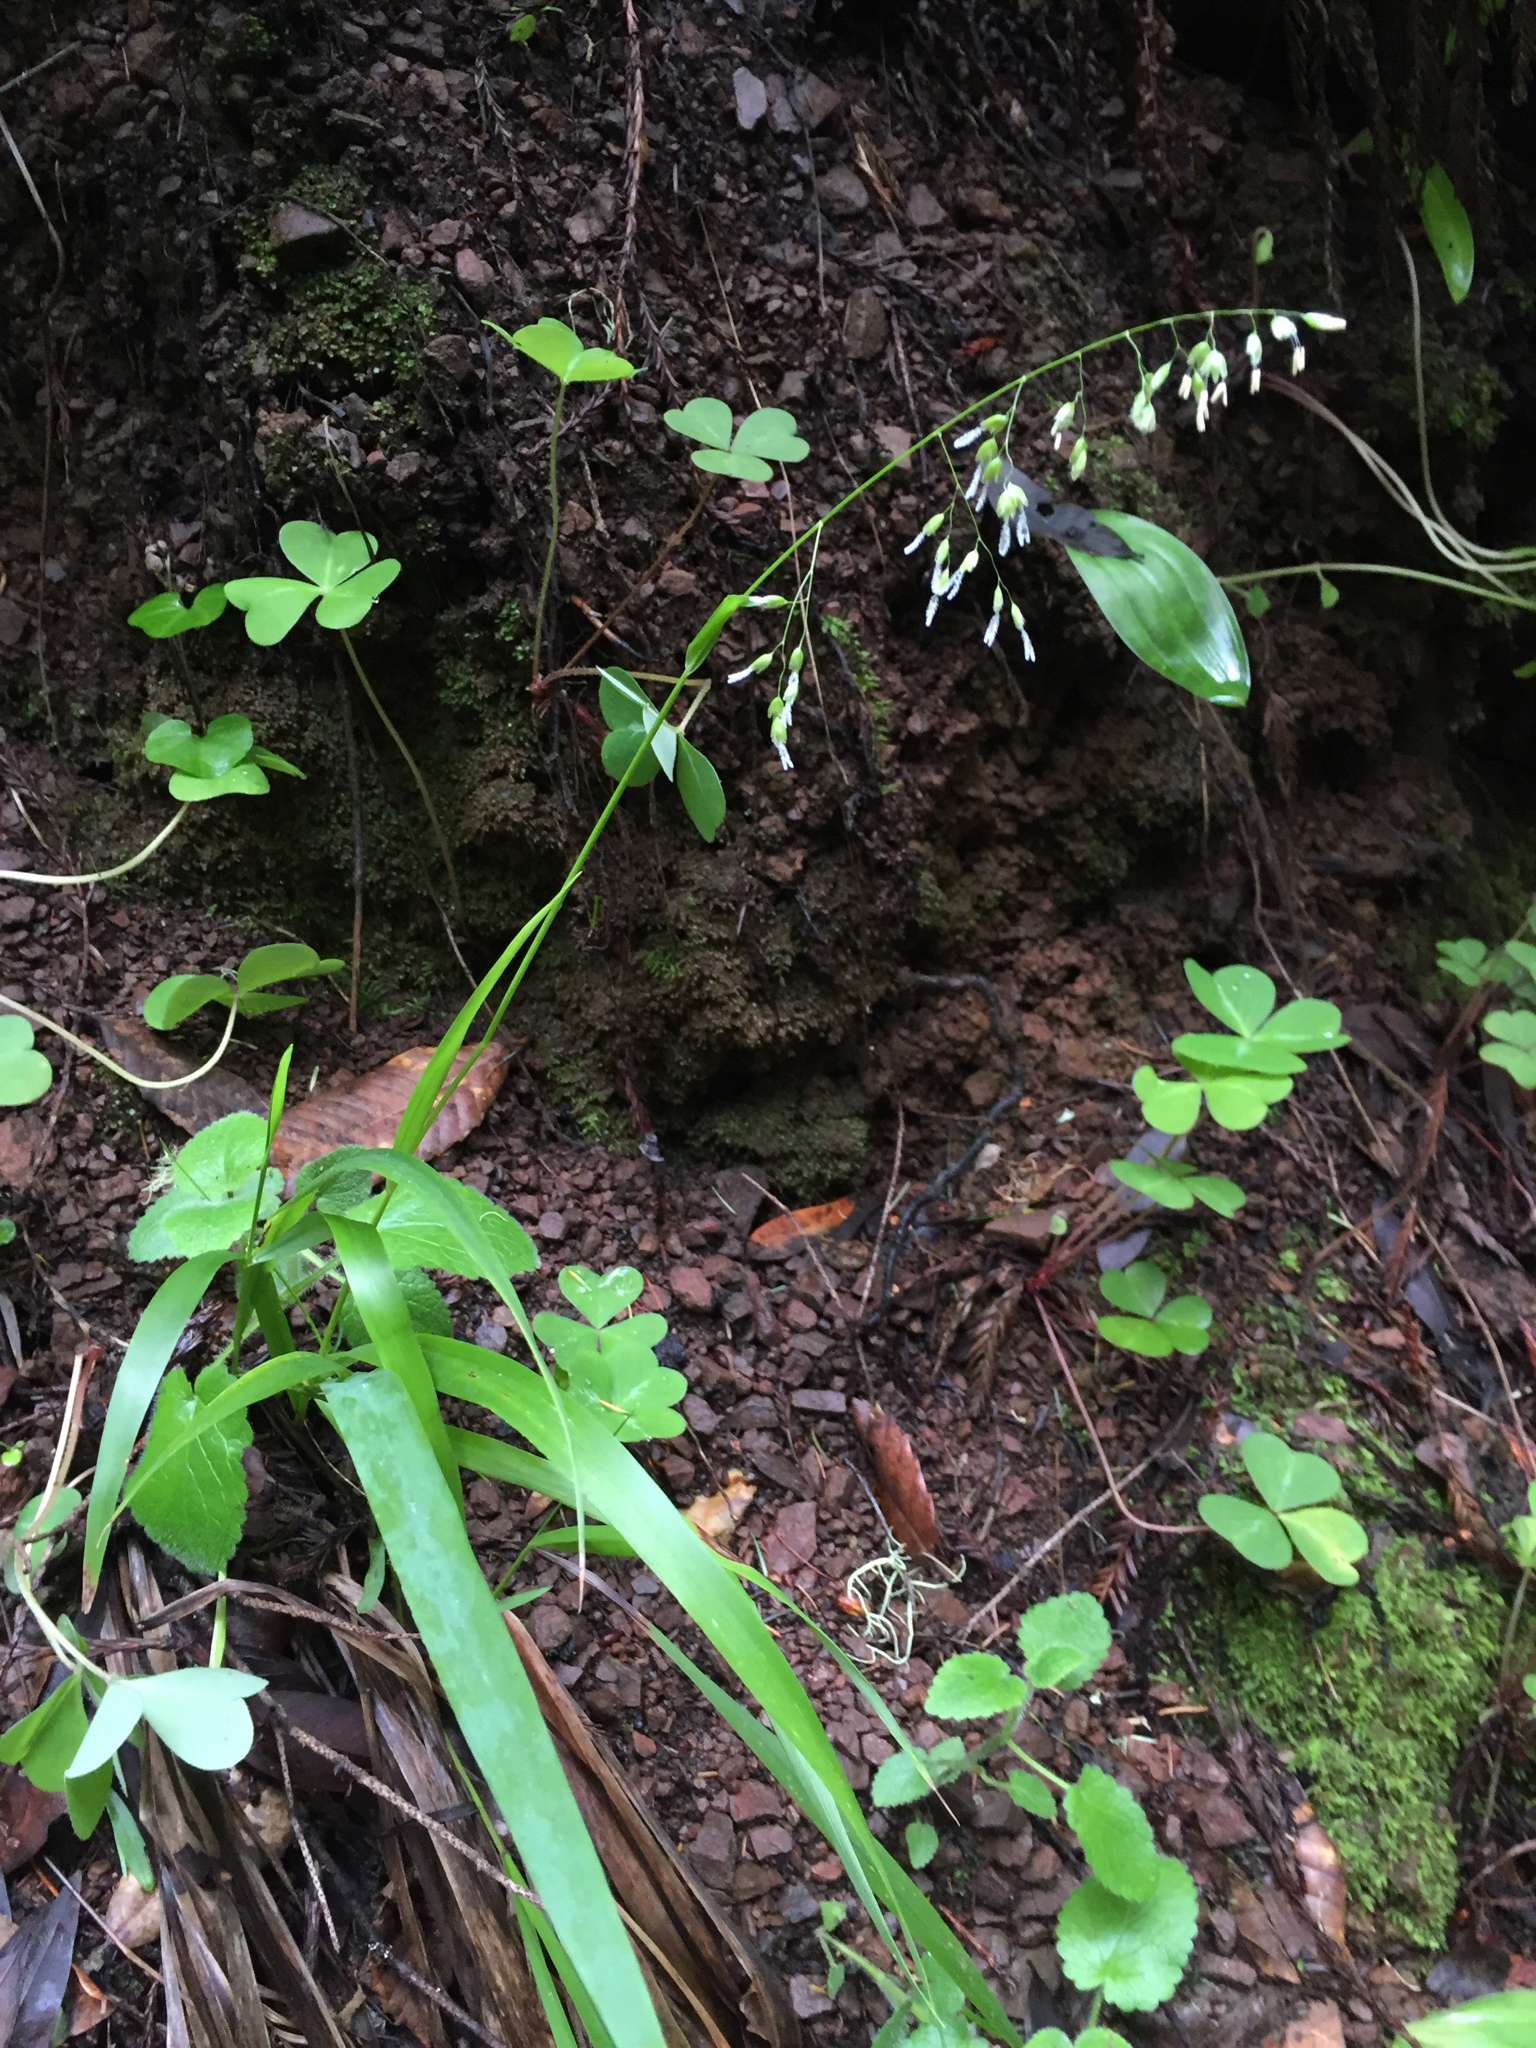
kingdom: Plantae
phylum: Tracheophyta
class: Liliopsida
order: Poales
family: Poaceae
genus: Anthoxanthum
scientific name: Anthoxanthum occidentale
